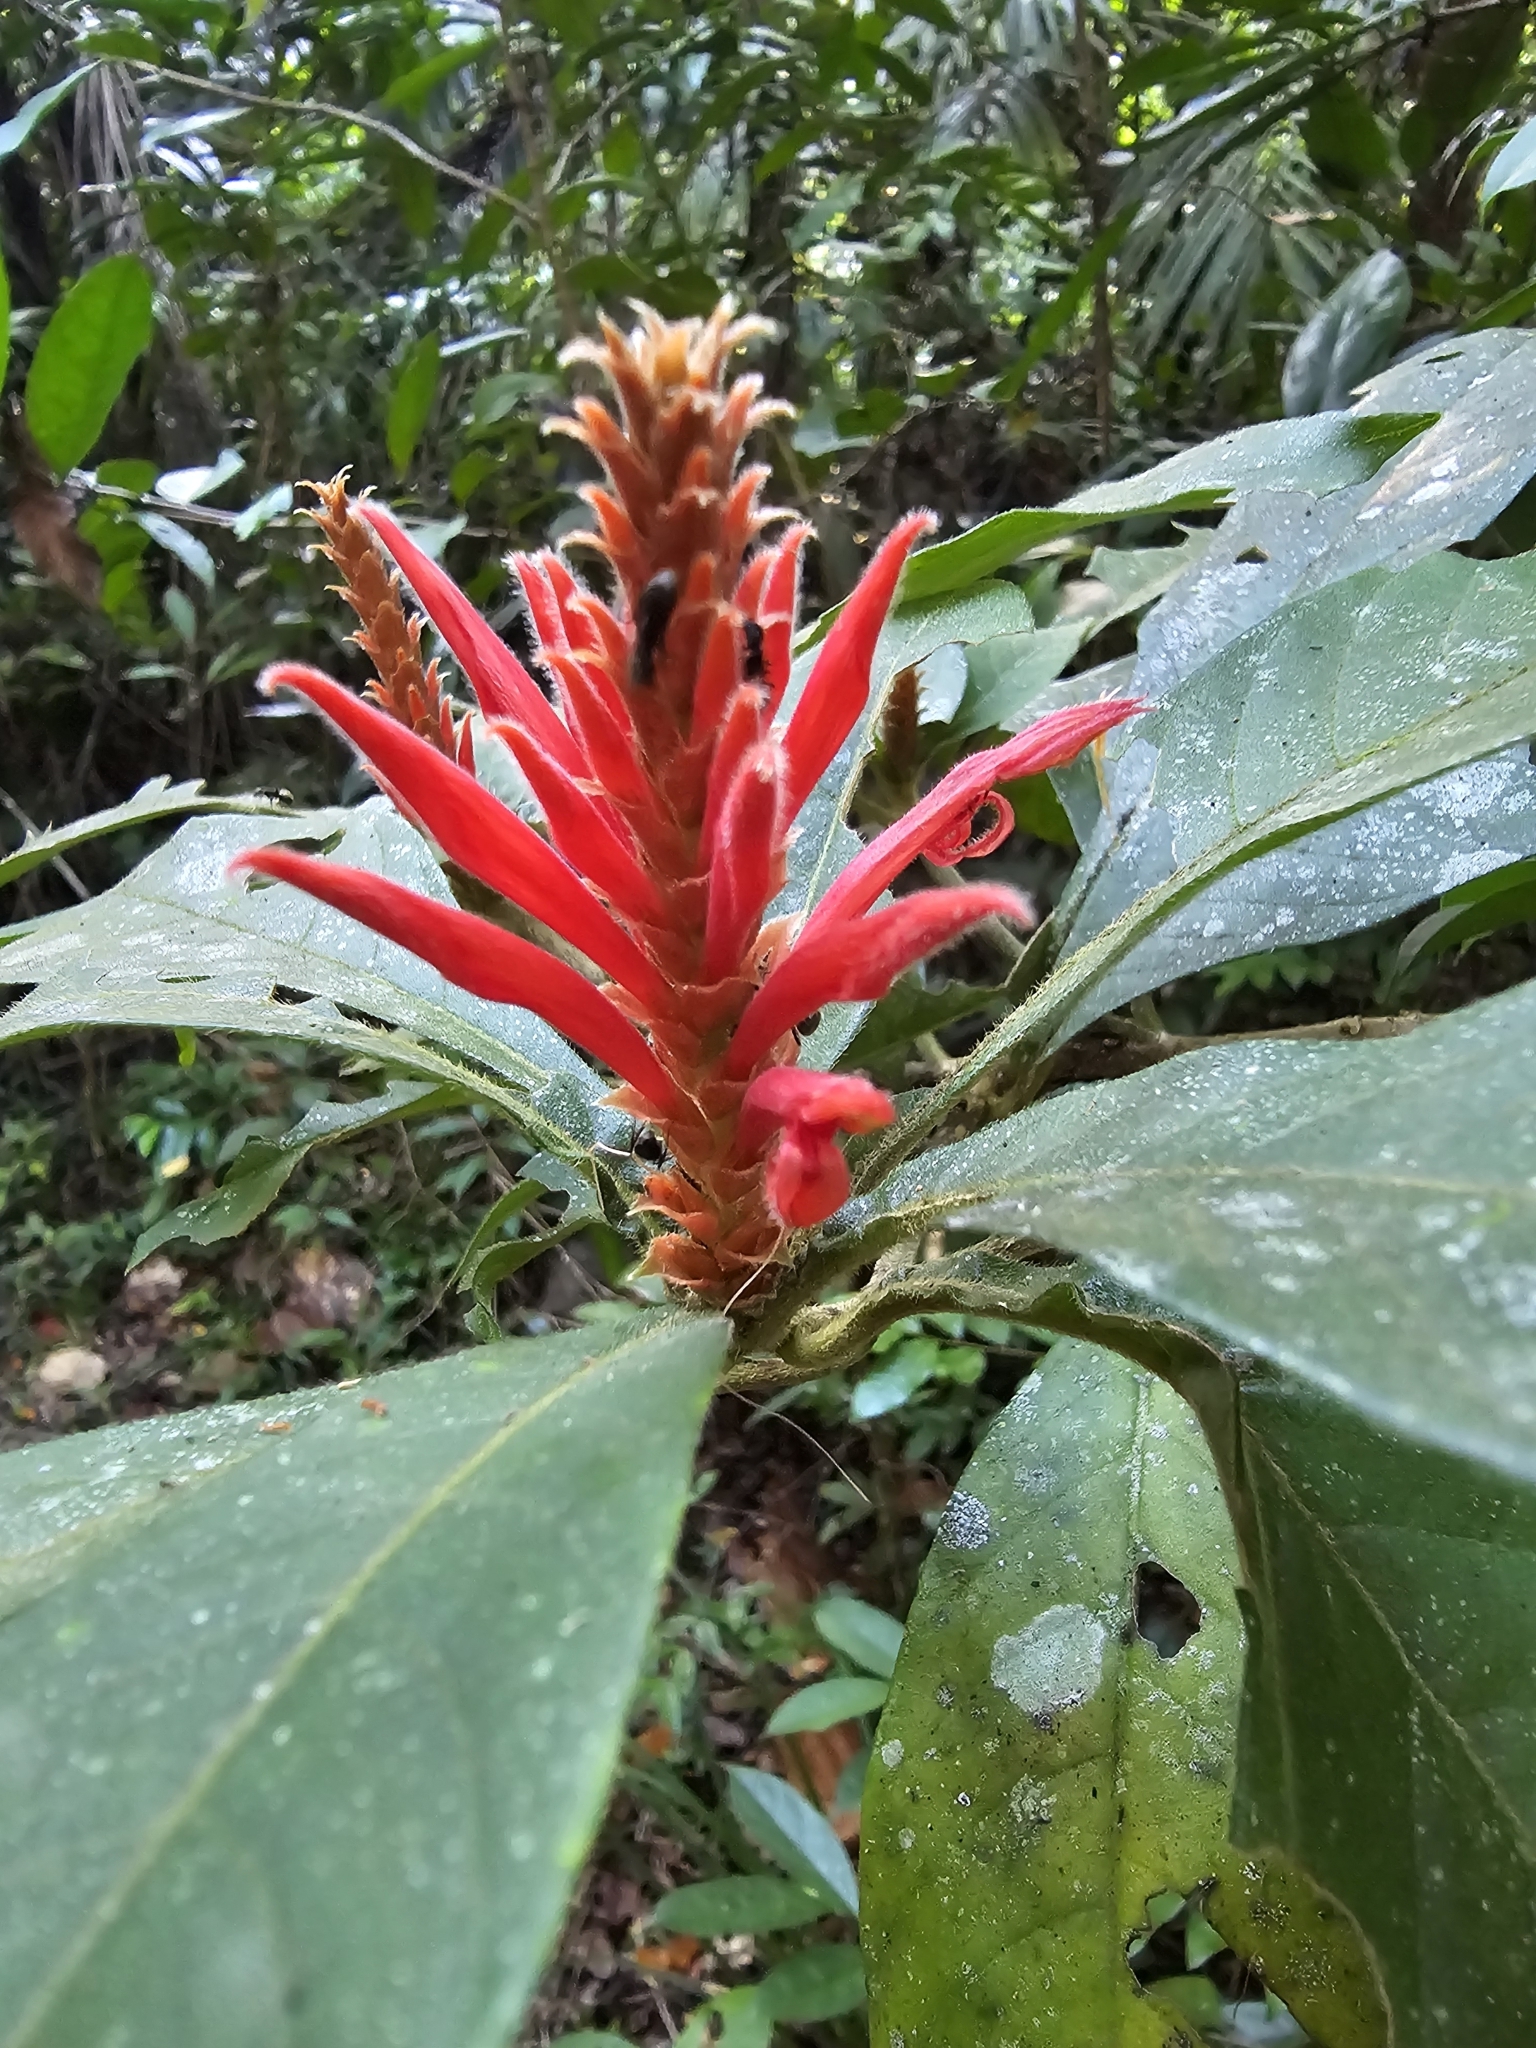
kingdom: Plantae
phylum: Tracheophyta
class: Magnoliopsida
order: Lamiales
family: Acanthaceae
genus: Aphelandra
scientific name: Aphelandra scabra
